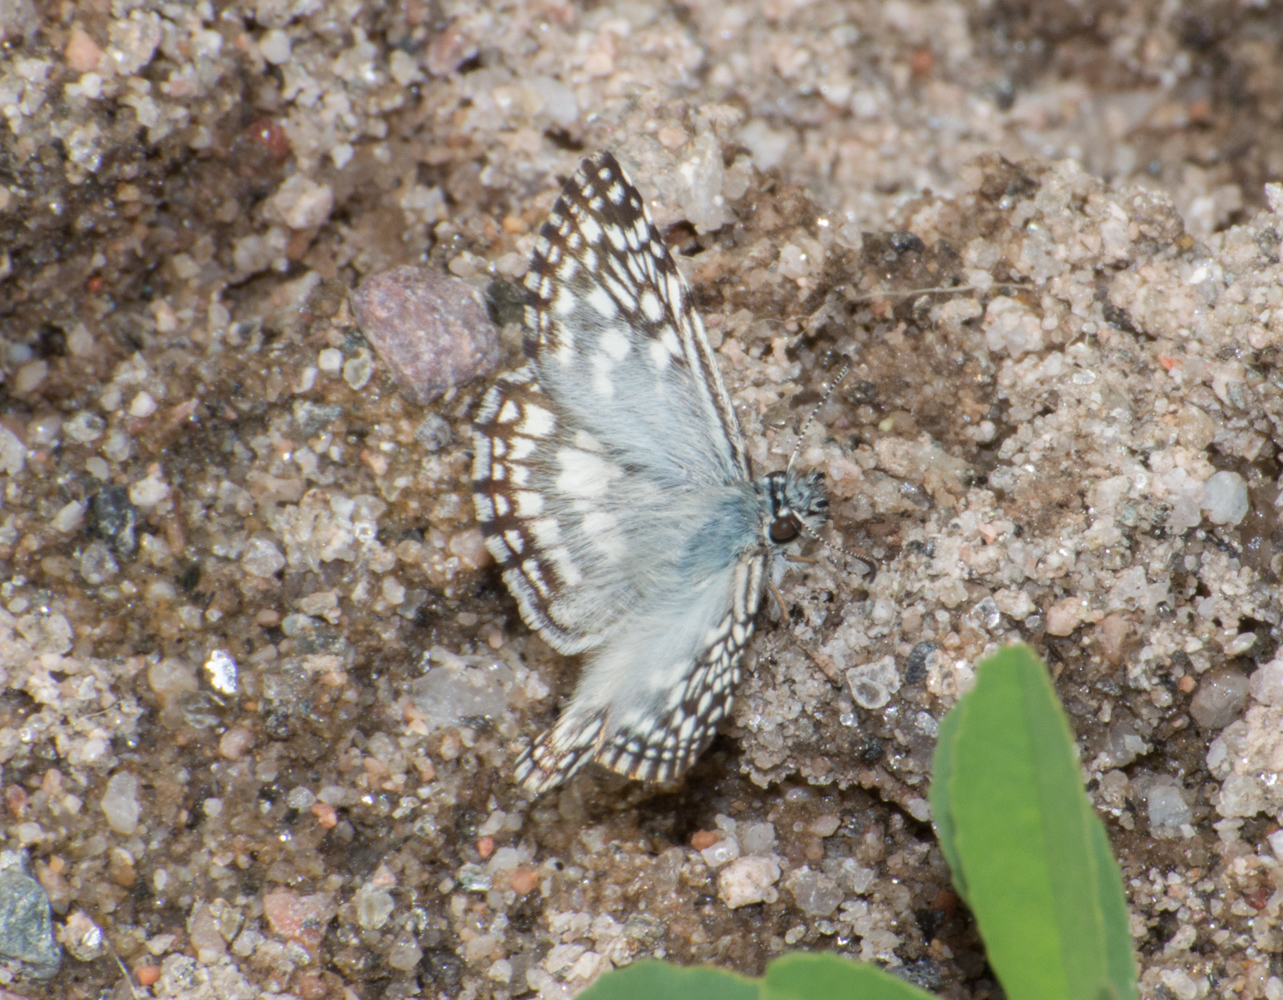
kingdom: Animalia
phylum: Arthropoda
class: Insecta
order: Lepidoptera
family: Hesperiidae
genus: Pyrgus
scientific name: Pyrgus oileus
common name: Tropical checkered-skipper
